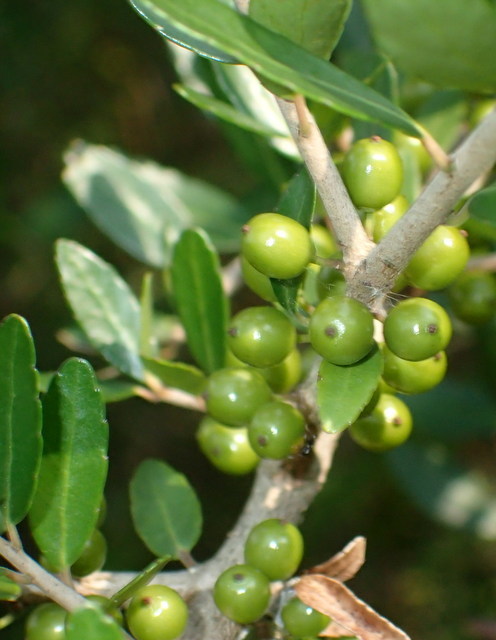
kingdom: Plantae
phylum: Tracheophyta
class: Magnoliopsida
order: Aquifoliales
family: Aquifoliaceae
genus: Ilex
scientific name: Ilex vomitoria
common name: Yaupon holly
